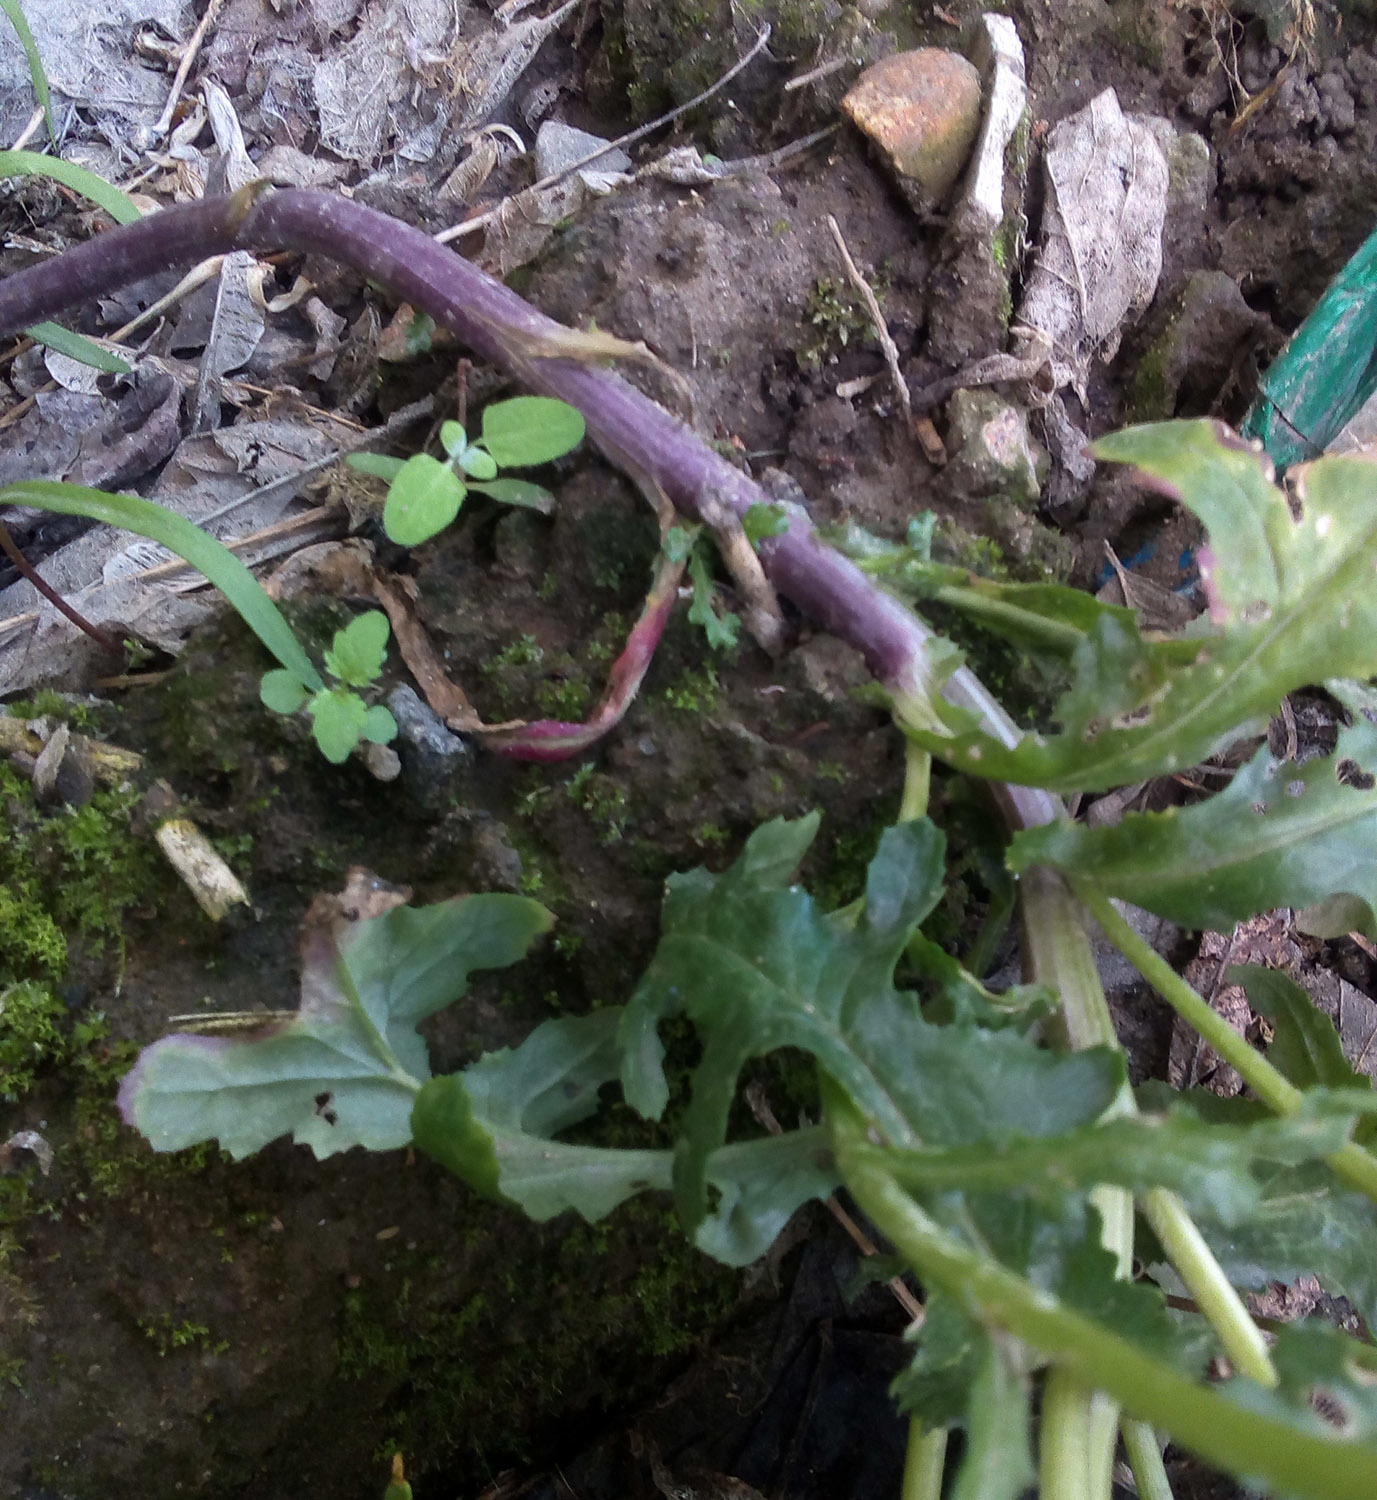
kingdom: Plantae
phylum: Tracheophyta
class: Magnoliopsida
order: Asterales
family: Asteraceae
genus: Senecio
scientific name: Senecio vulgaris
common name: Old-man-in-the-spring
